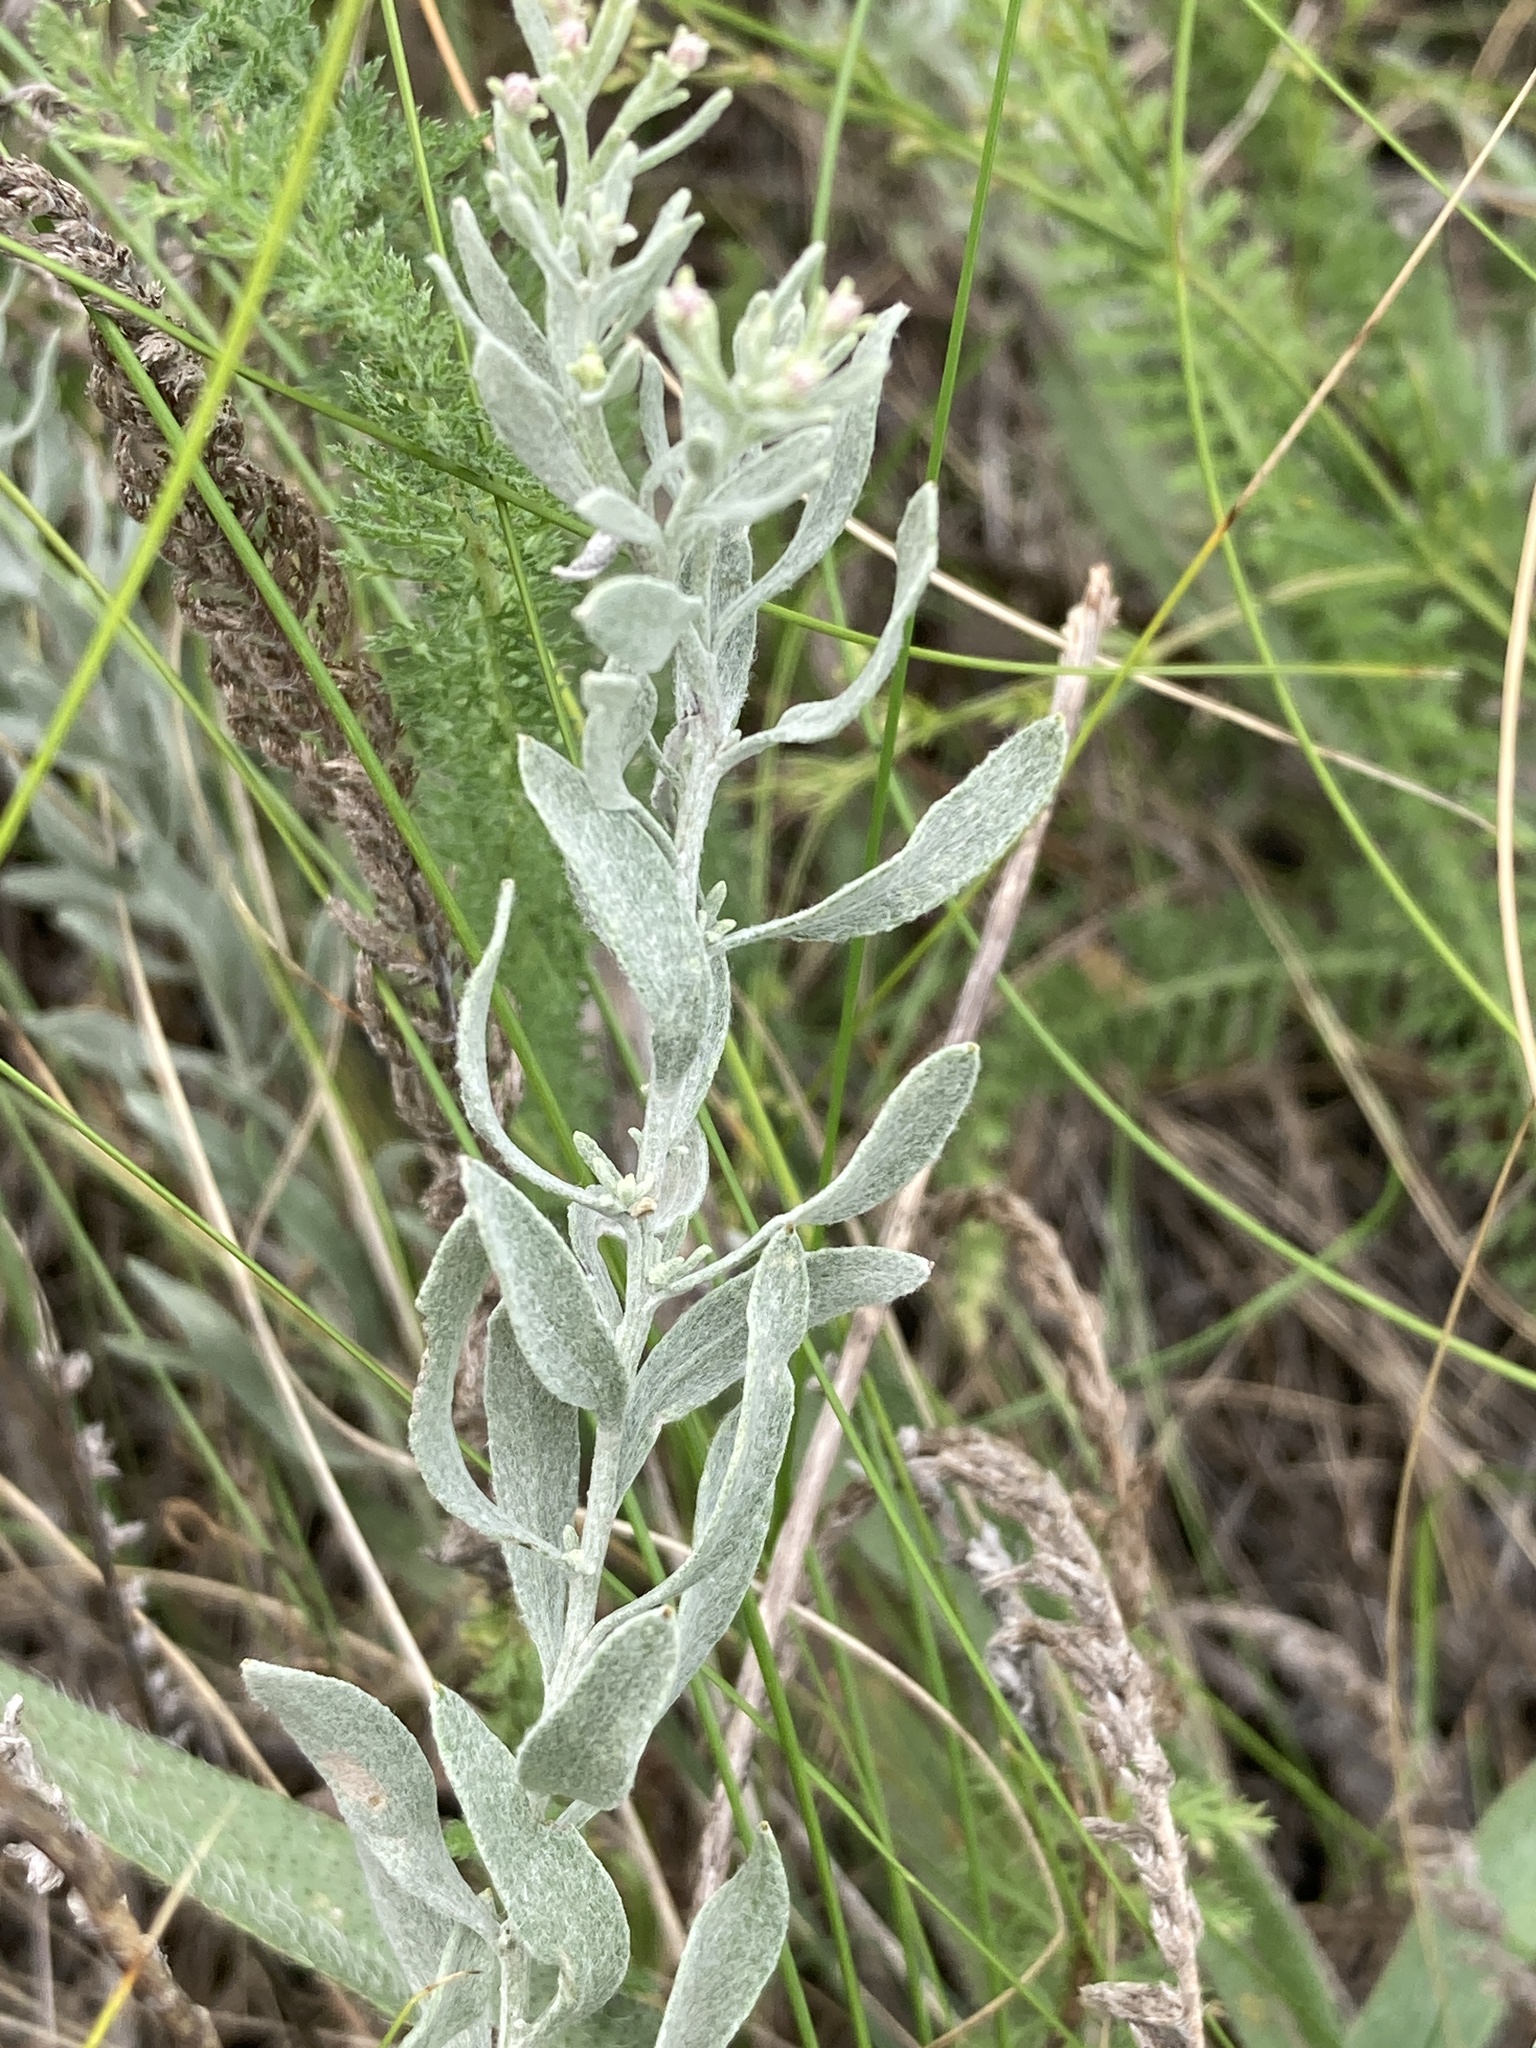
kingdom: Plantae
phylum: Tracheophyta
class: Magnoliopsida
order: Asterales
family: Asteraceae
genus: Galatella
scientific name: Galatella villosa
